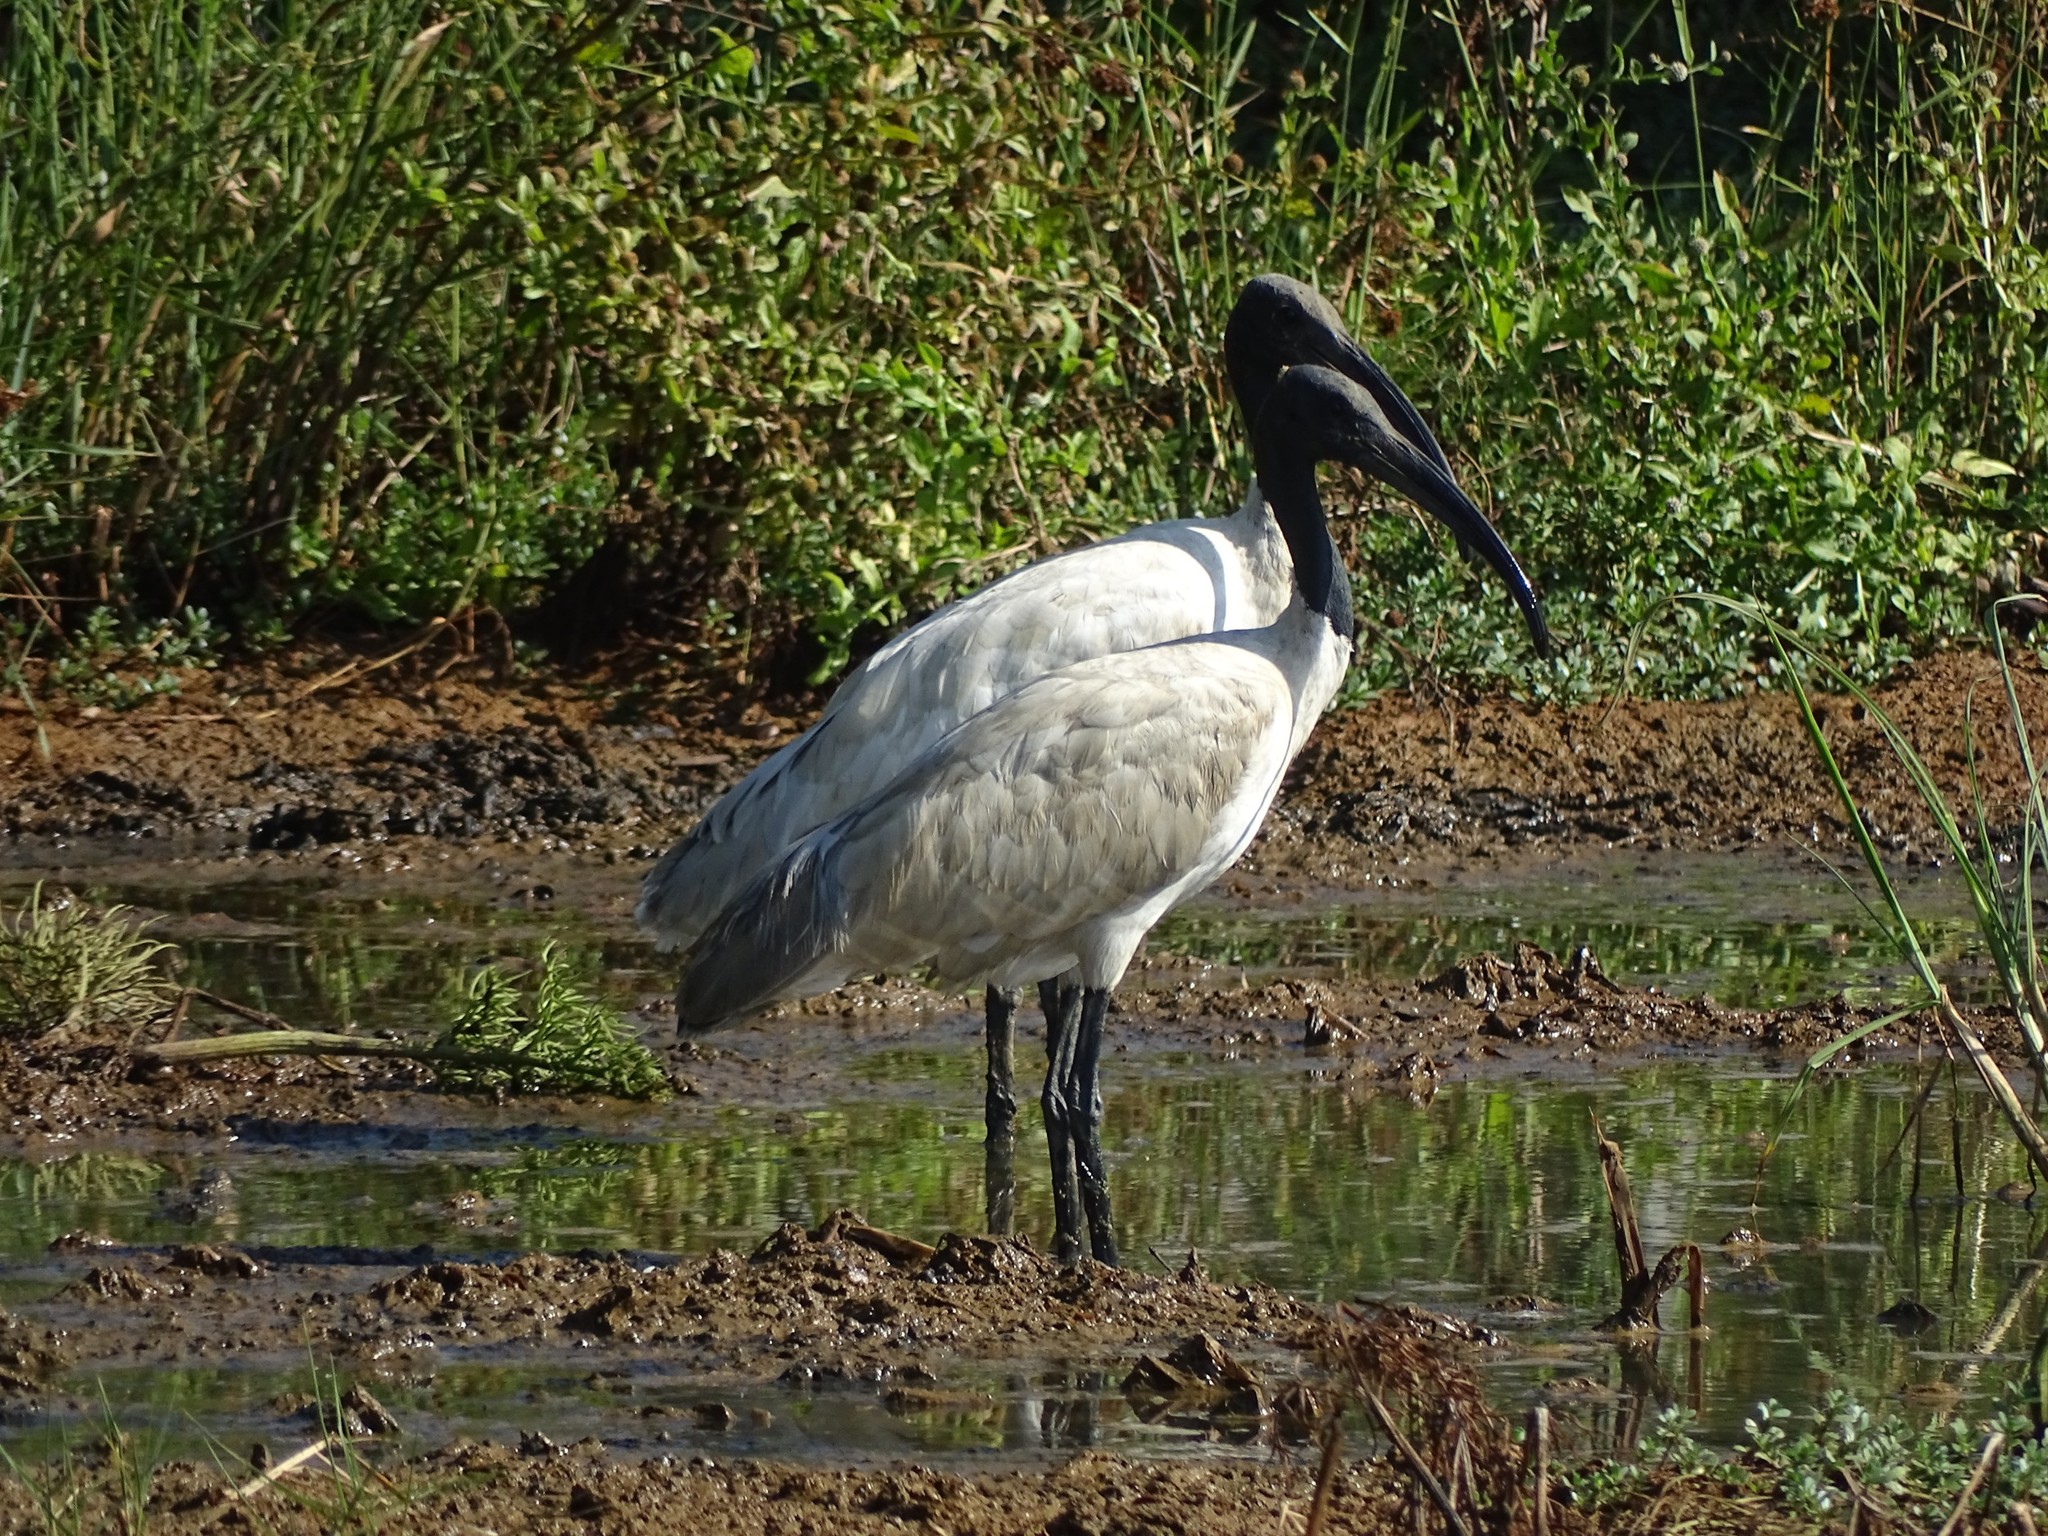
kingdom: Animalia
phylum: Chordata
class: Aves
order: Pelecaniformes
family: Threskiornithidae
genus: Threskiornis
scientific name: Threskiornis melanocephalus
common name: Black-headed ibis
